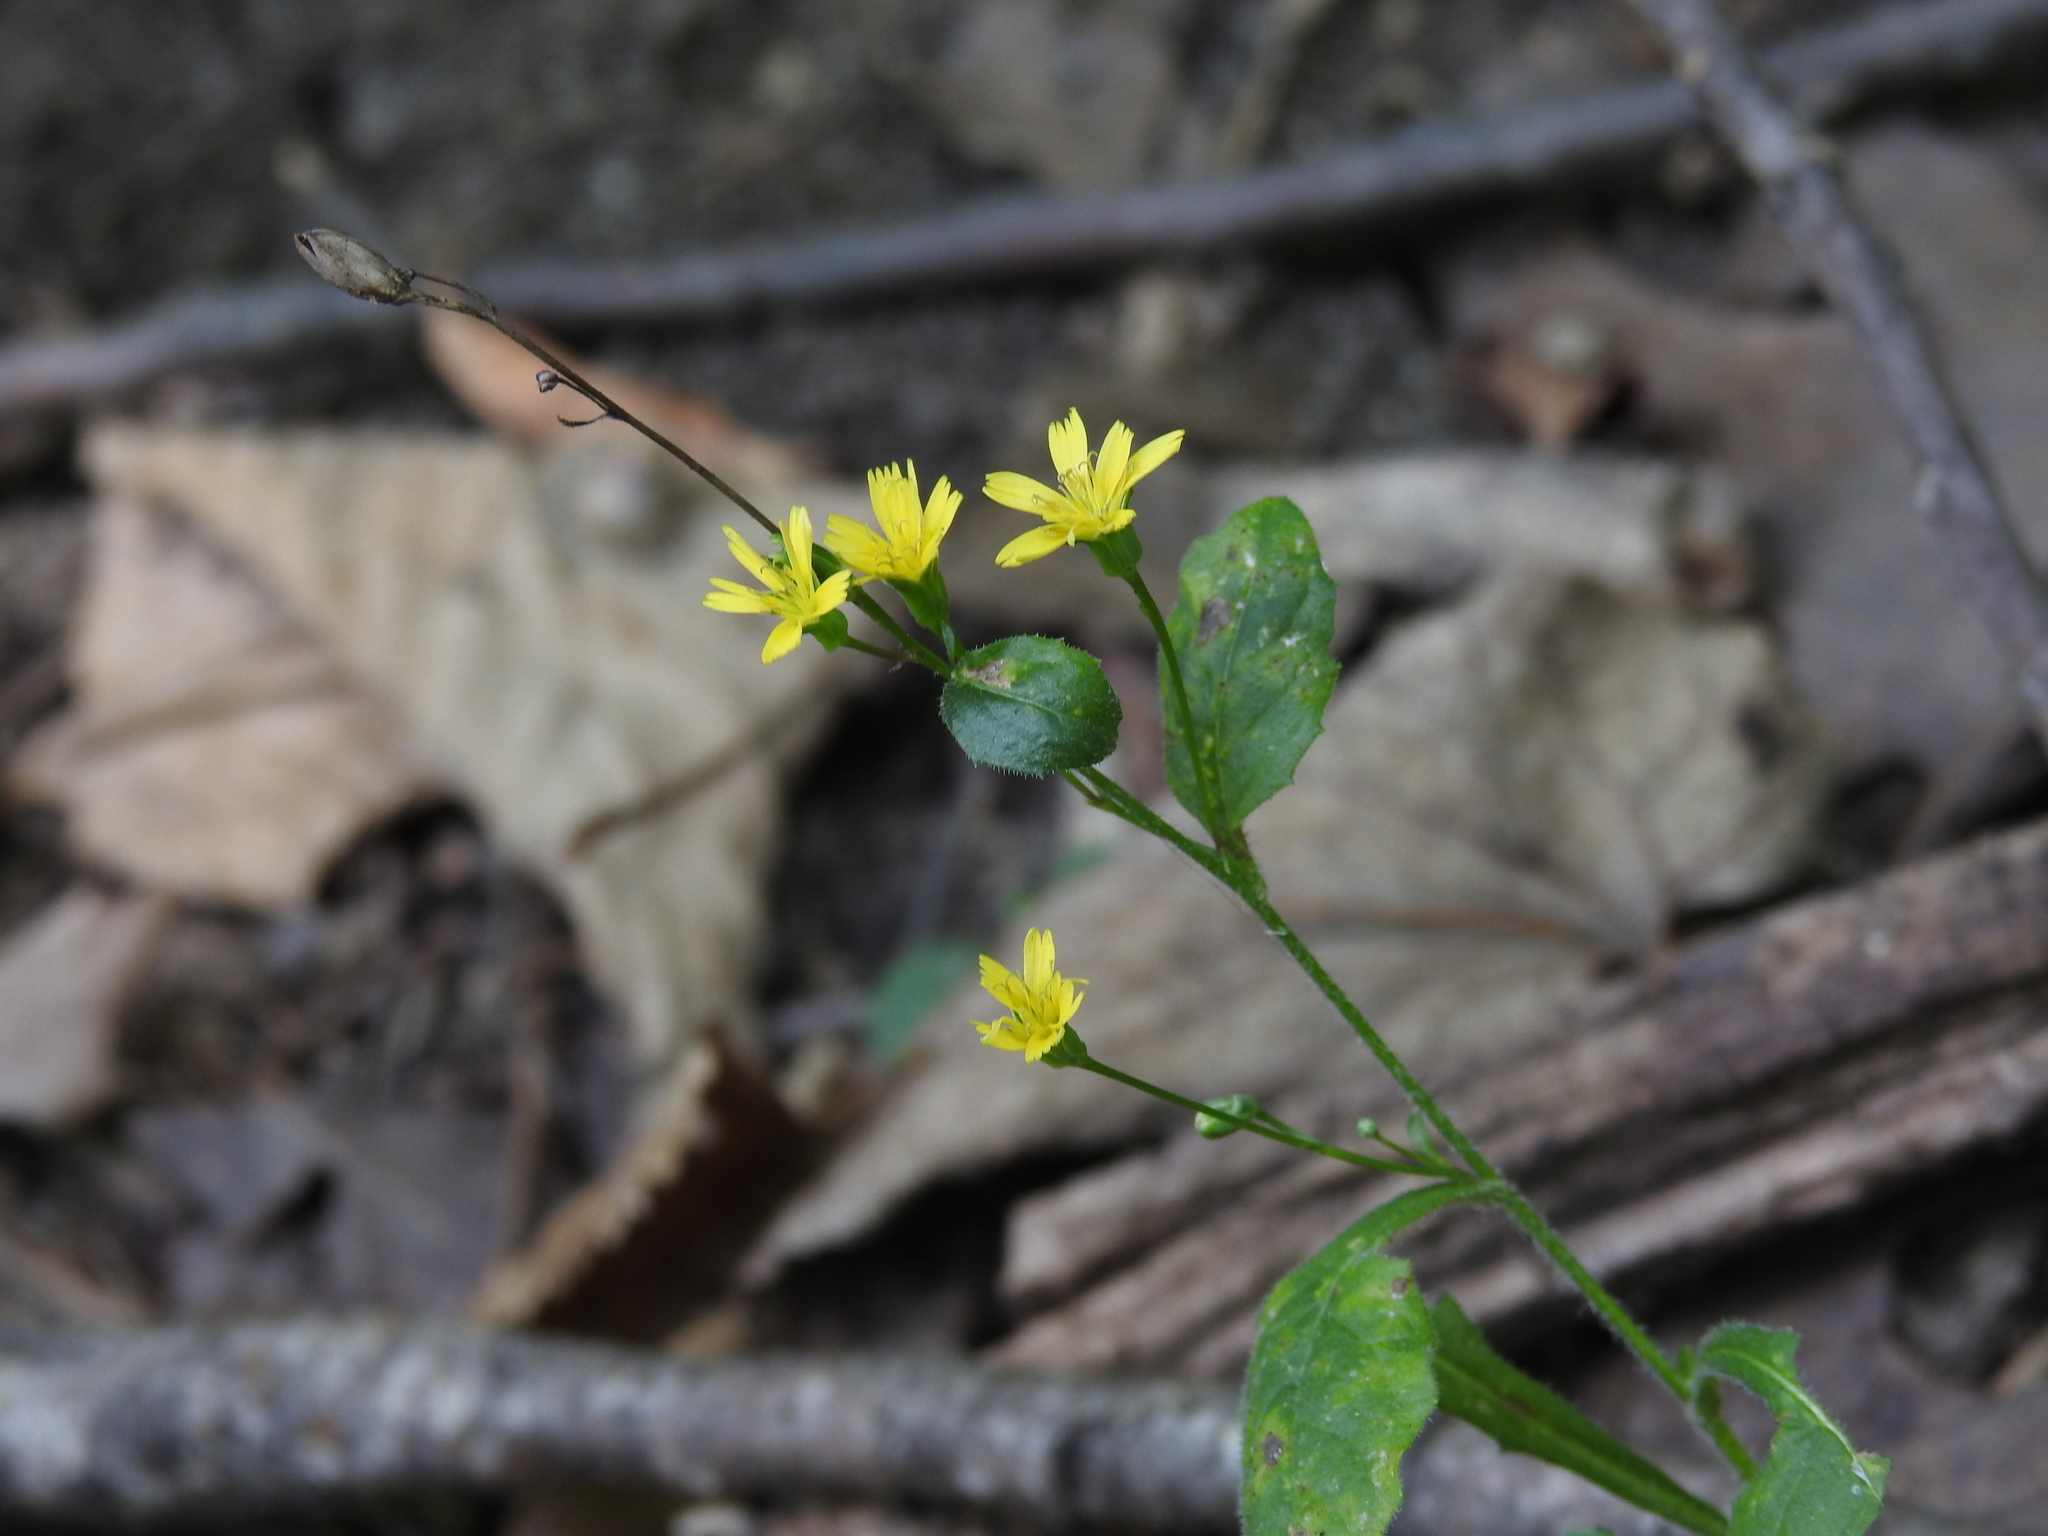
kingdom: Plantae
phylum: Tracheophyta
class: Magnoliopsida
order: Asterales
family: Asteraceae
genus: Lapsana
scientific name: Lapsana communis
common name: Nipplewort
